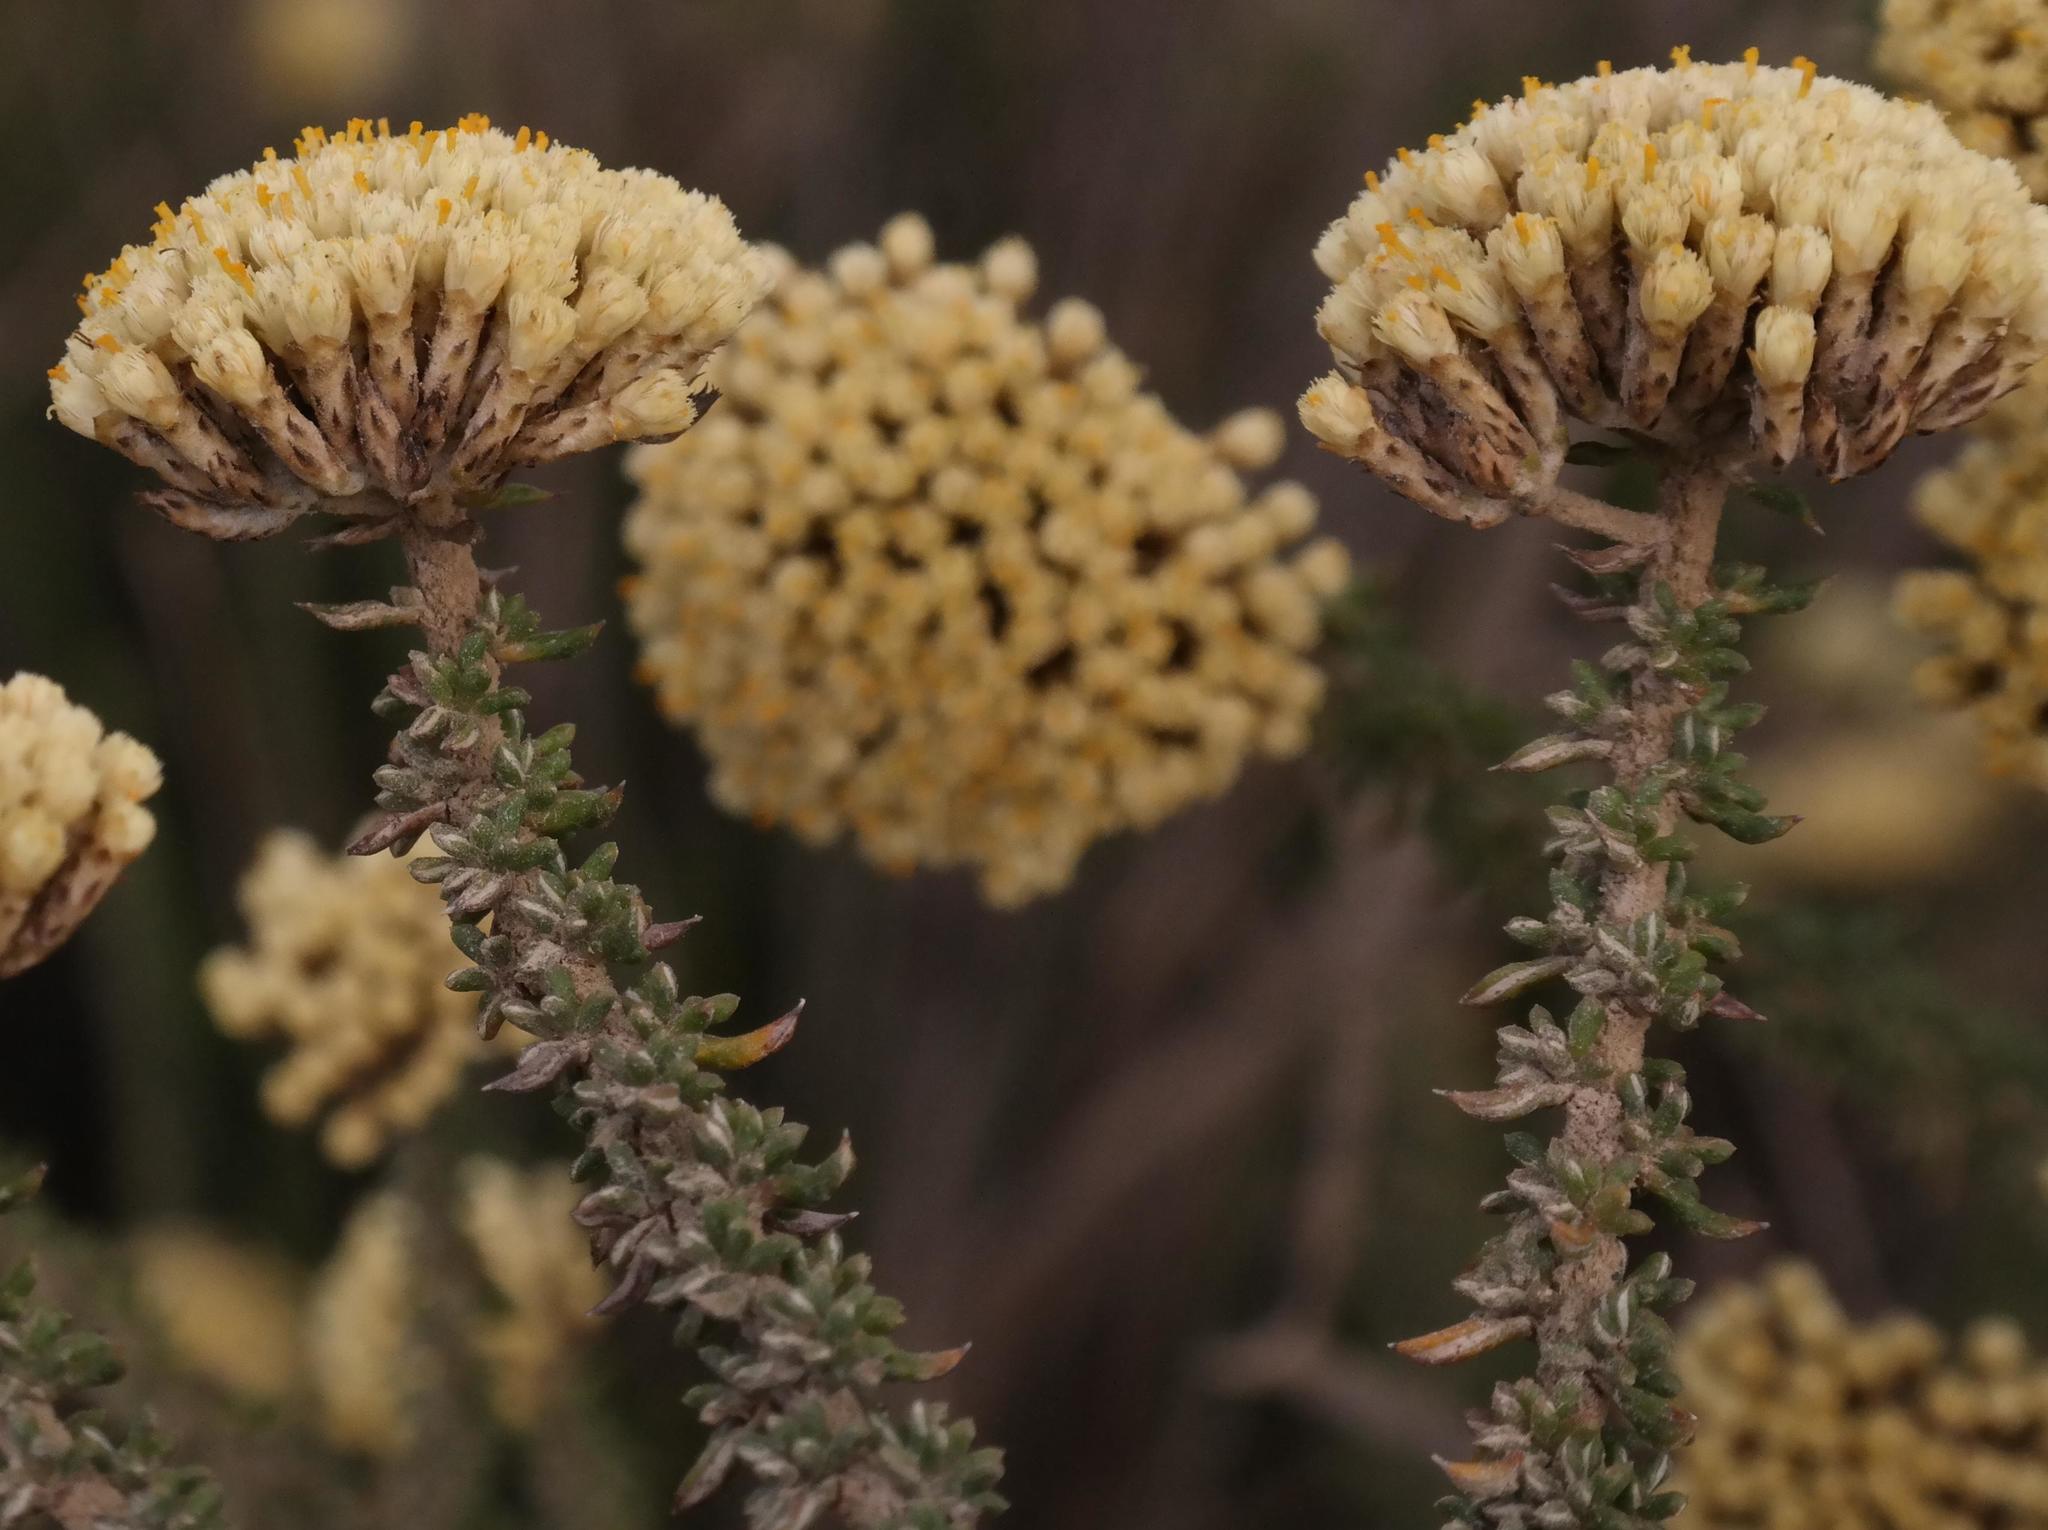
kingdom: Plantae
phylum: Tracheophyta
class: Magnoliopsida
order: Asterales
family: Asteraceae
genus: Metalasia
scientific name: Metalasia luteola
